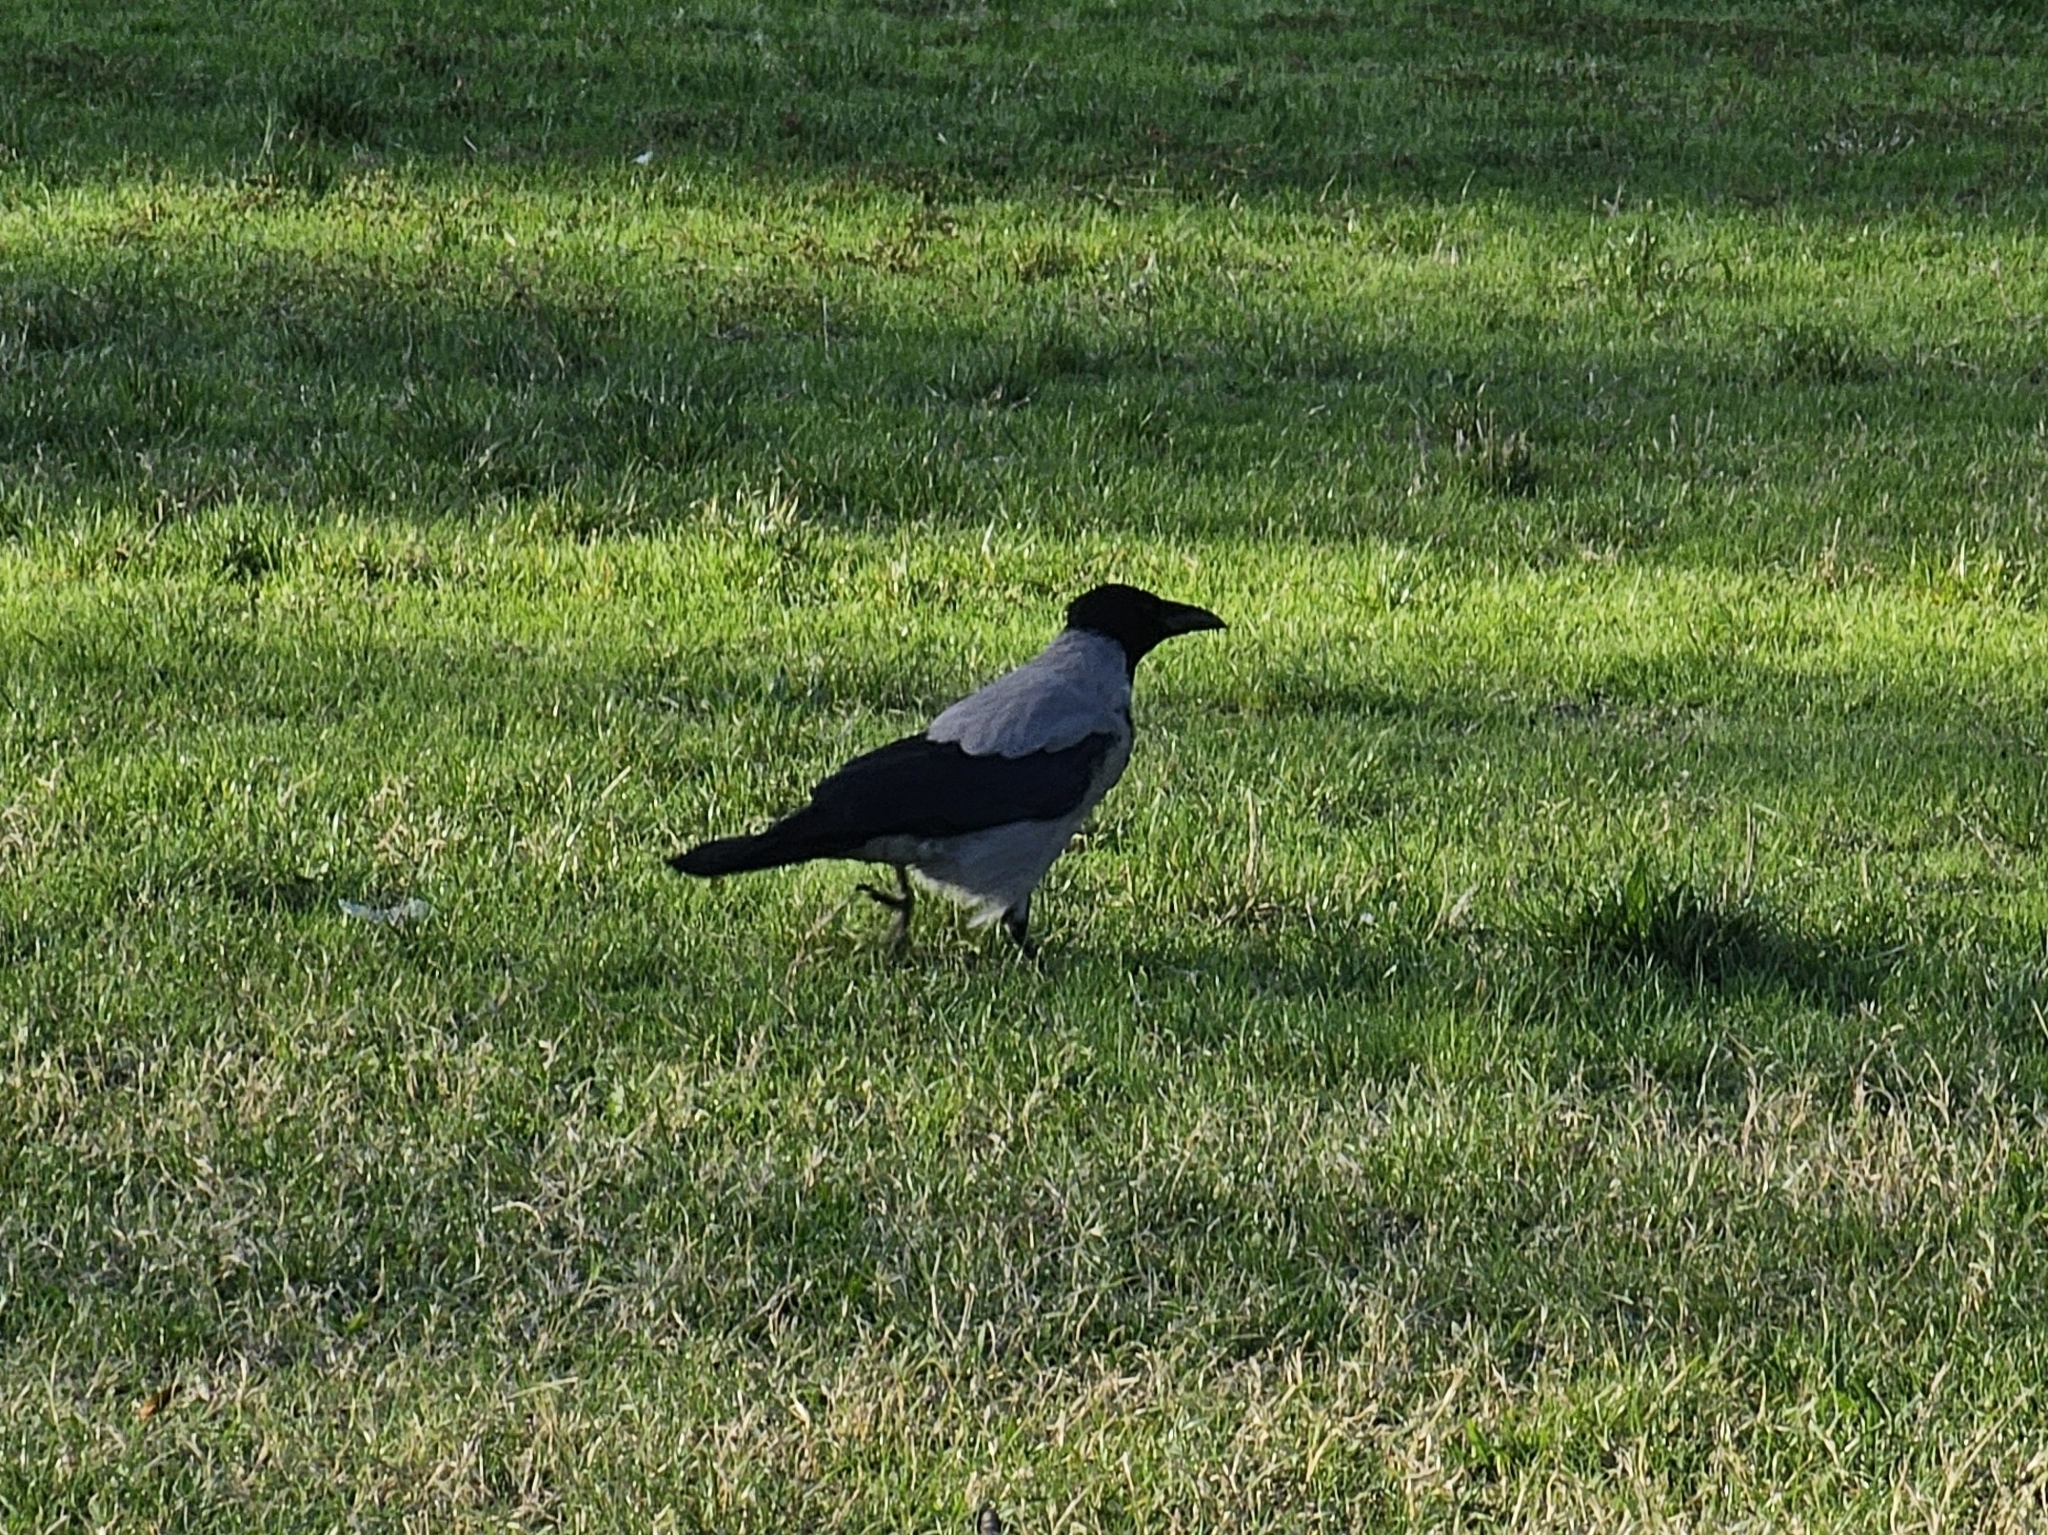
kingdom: Animalia
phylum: Chordata
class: Aves
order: Passeriformes
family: Corvidae
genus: Corvus
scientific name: Corvus cornix
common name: Hooded crow
